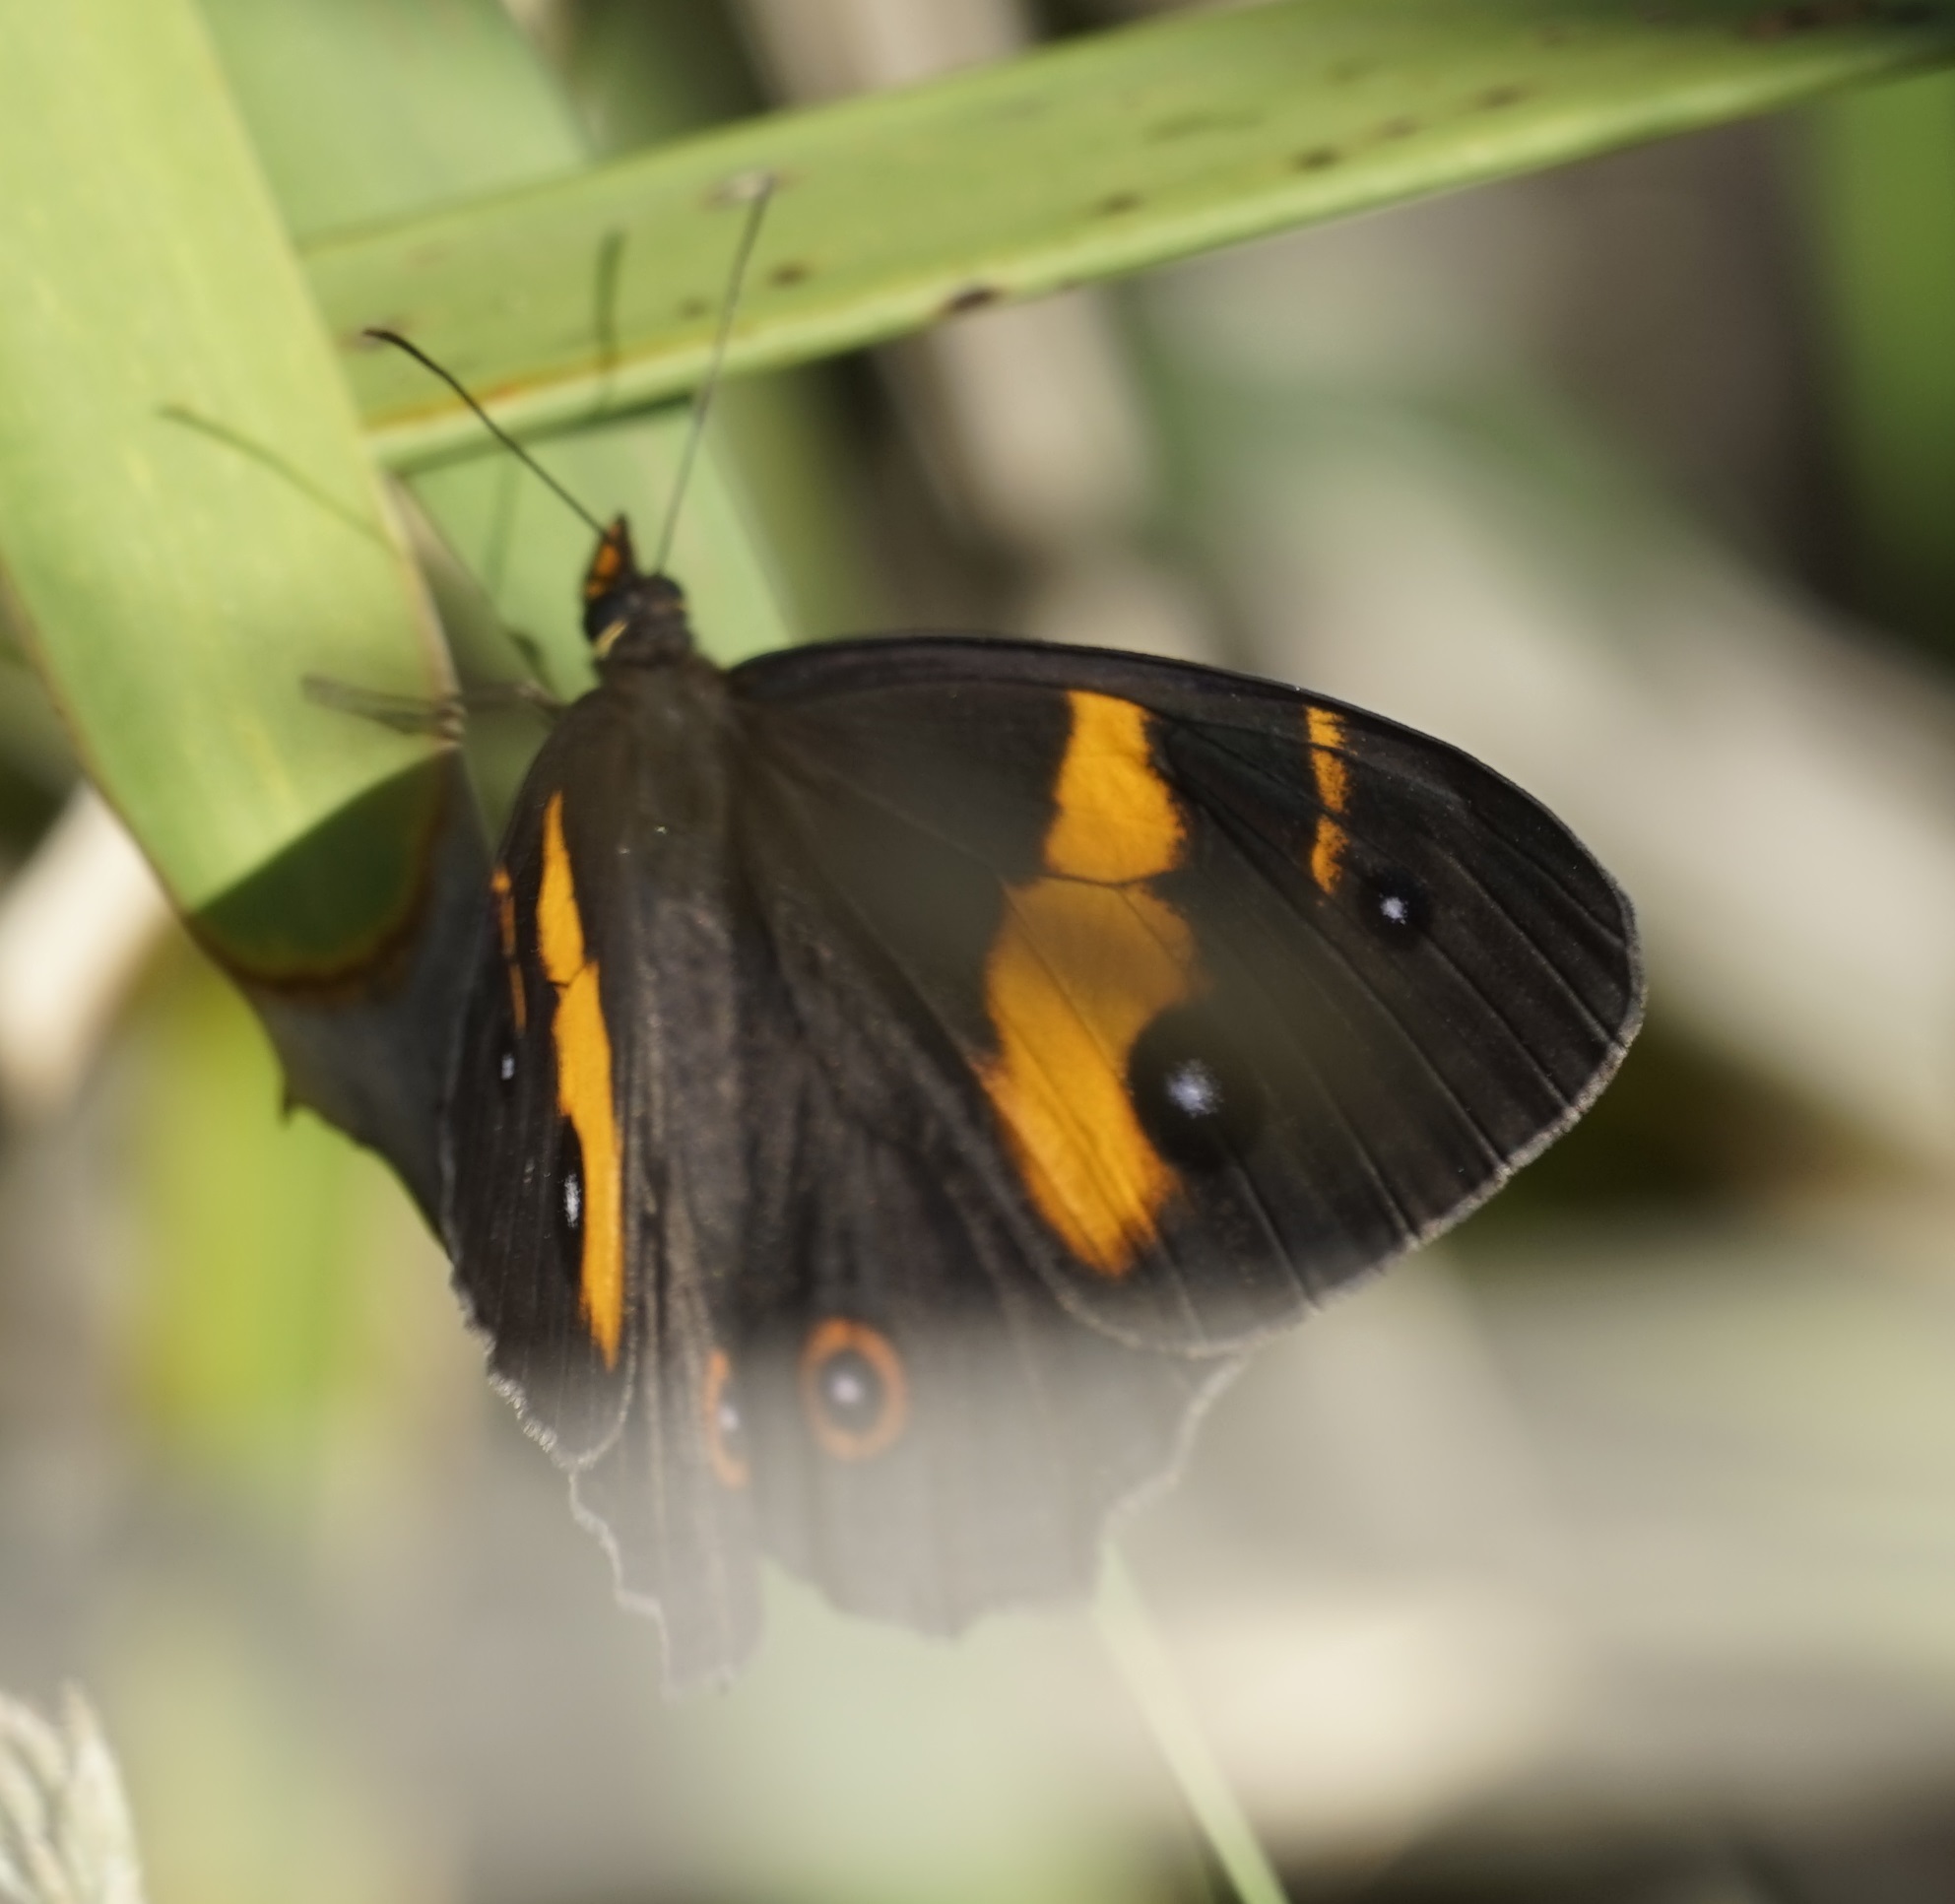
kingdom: Animalia
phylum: Arthropoda
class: Insecta
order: Lepidoptera
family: Nymphalidae
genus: Tisiphone
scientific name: Tisiphone abeona
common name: Swordgrass brown
